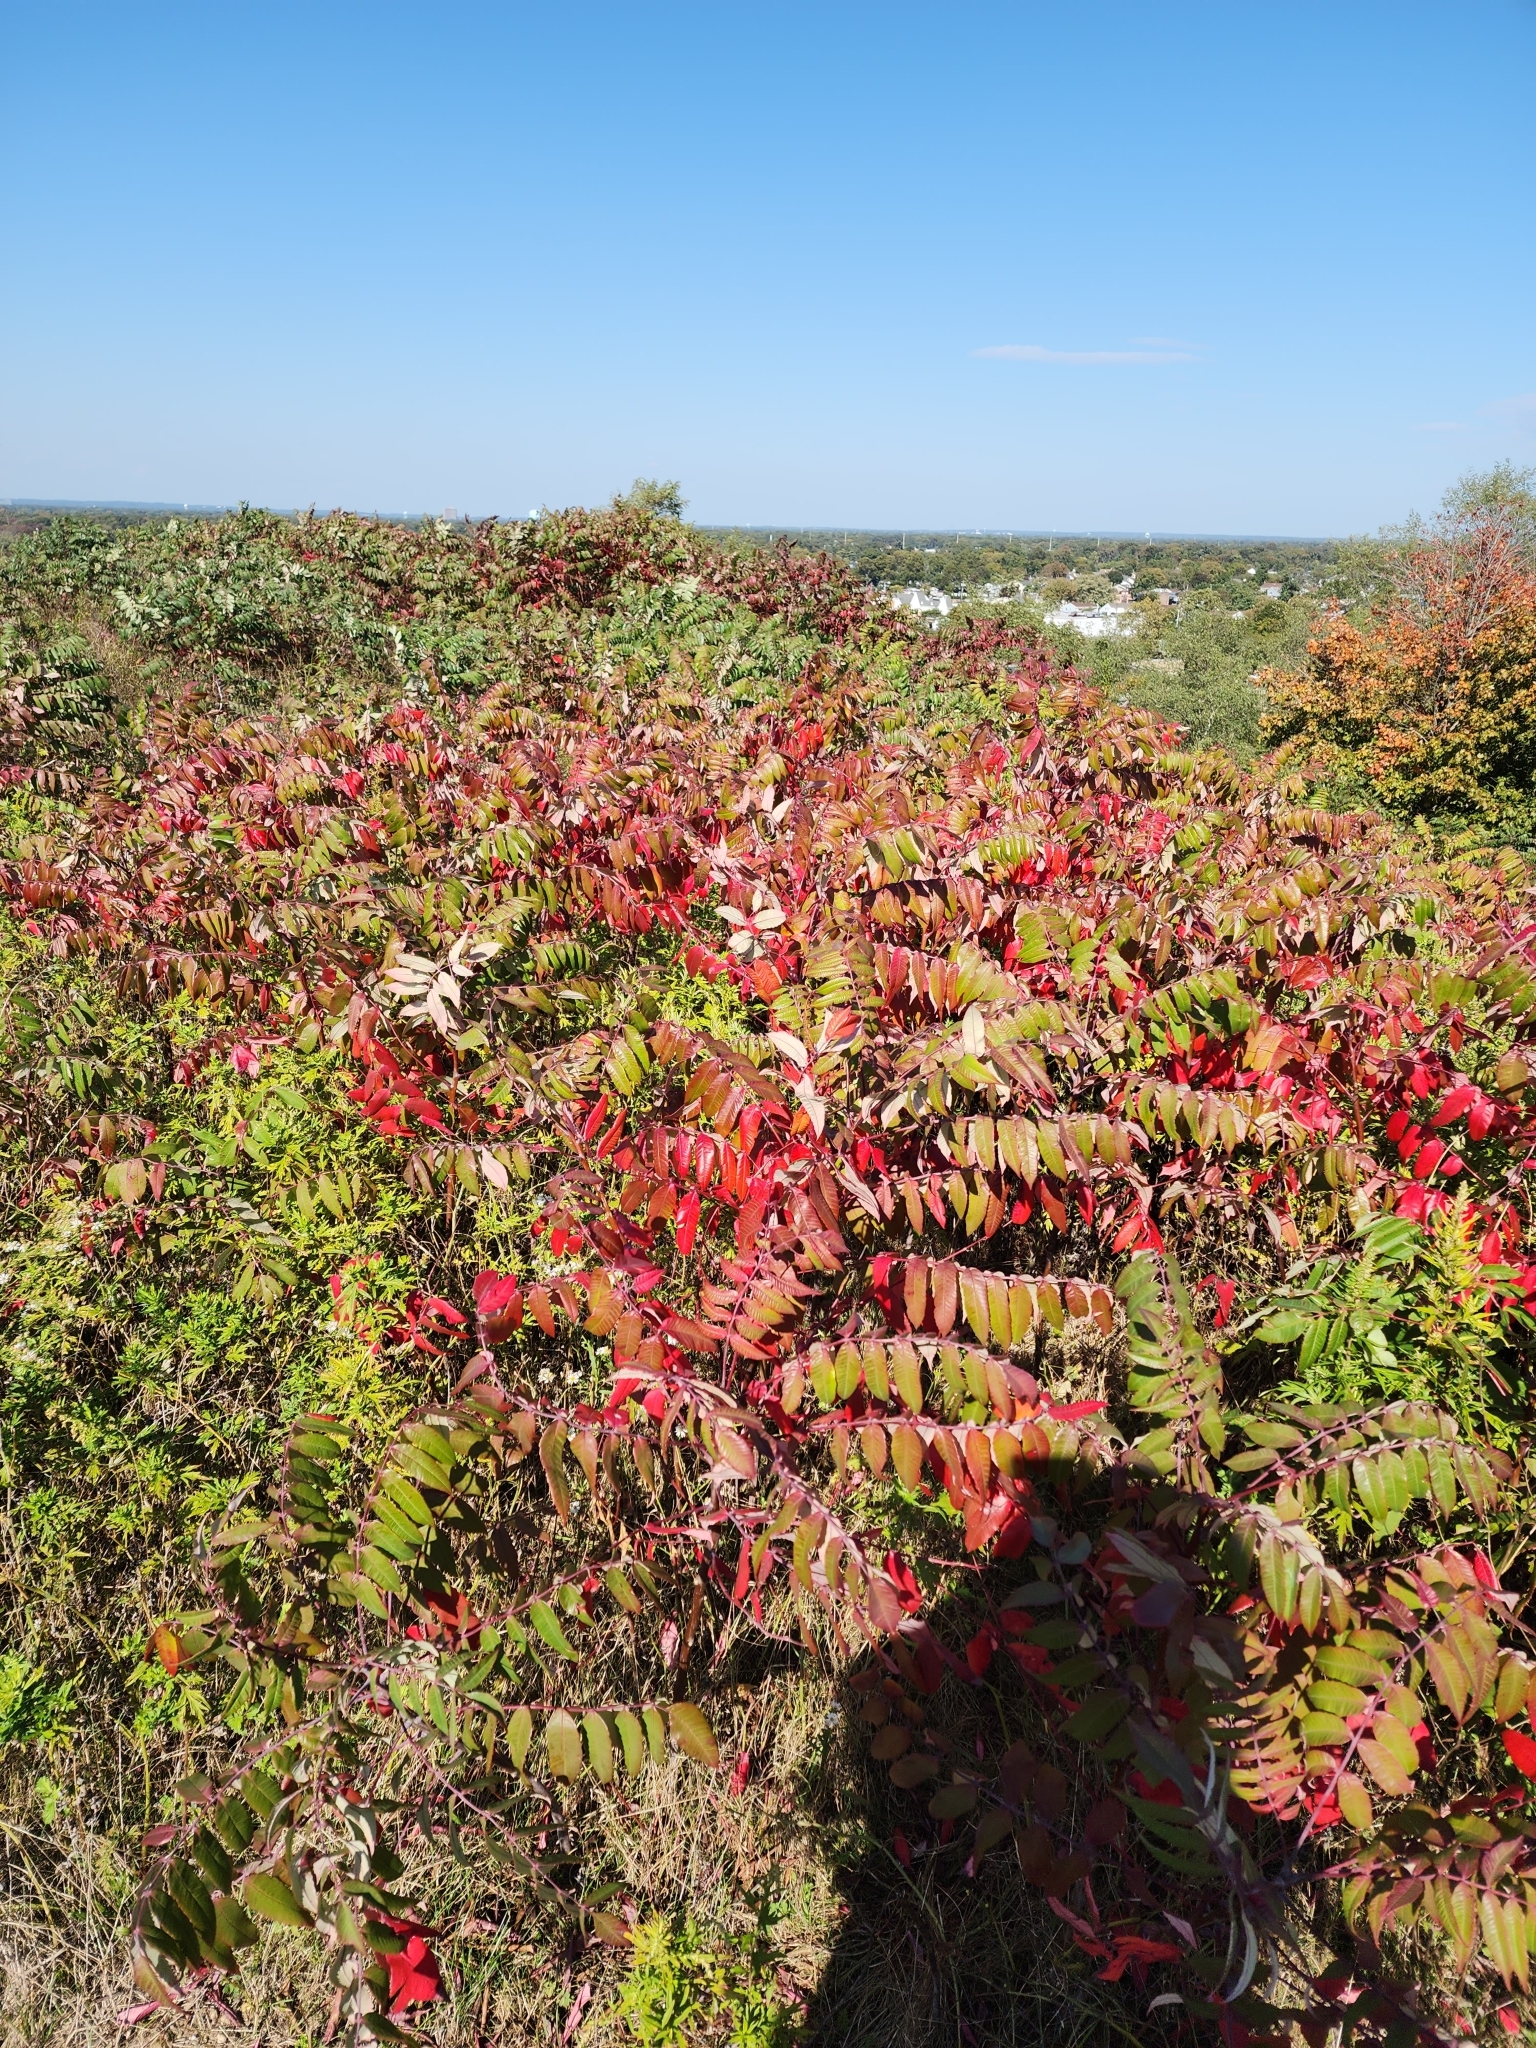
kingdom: Plantae
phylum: Tracheophyta
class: Magnoliopsida
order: Sapindales
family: Anacardiaceae
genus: Rhus
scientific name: Rhus glabra
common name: Scarlet sumac
